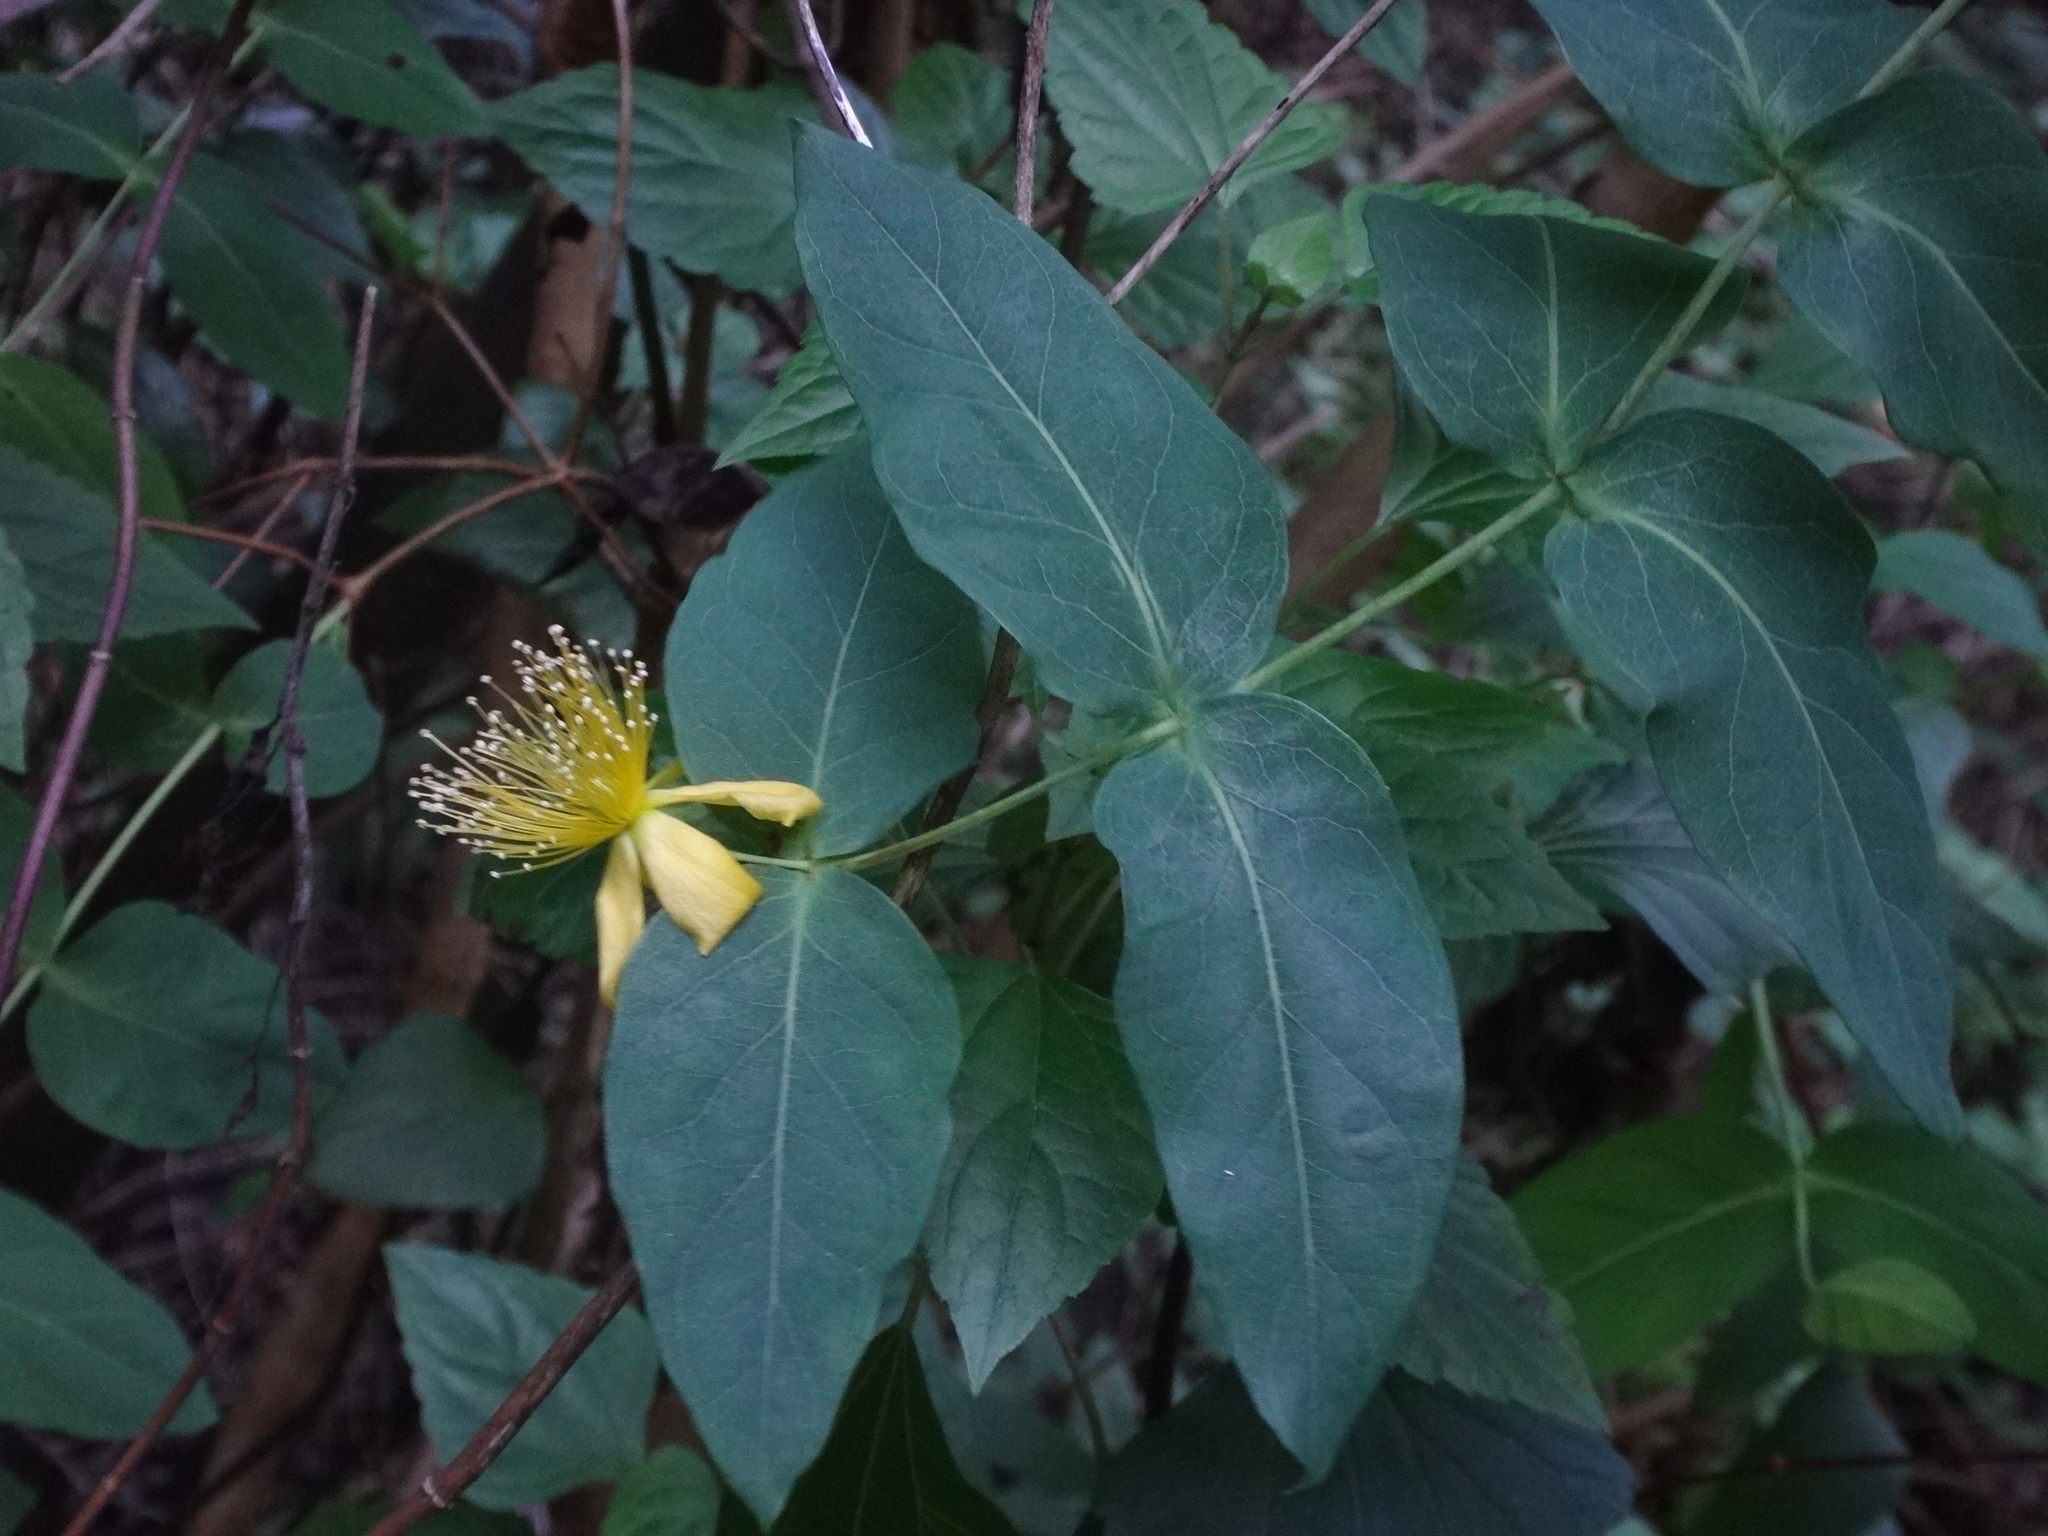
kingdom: Plantae
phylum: Tracheophyta
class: Magnoliopsida
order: Malpighiales
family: Hypericaceae
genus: Hypericum
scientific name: Hypericum grandifolium
